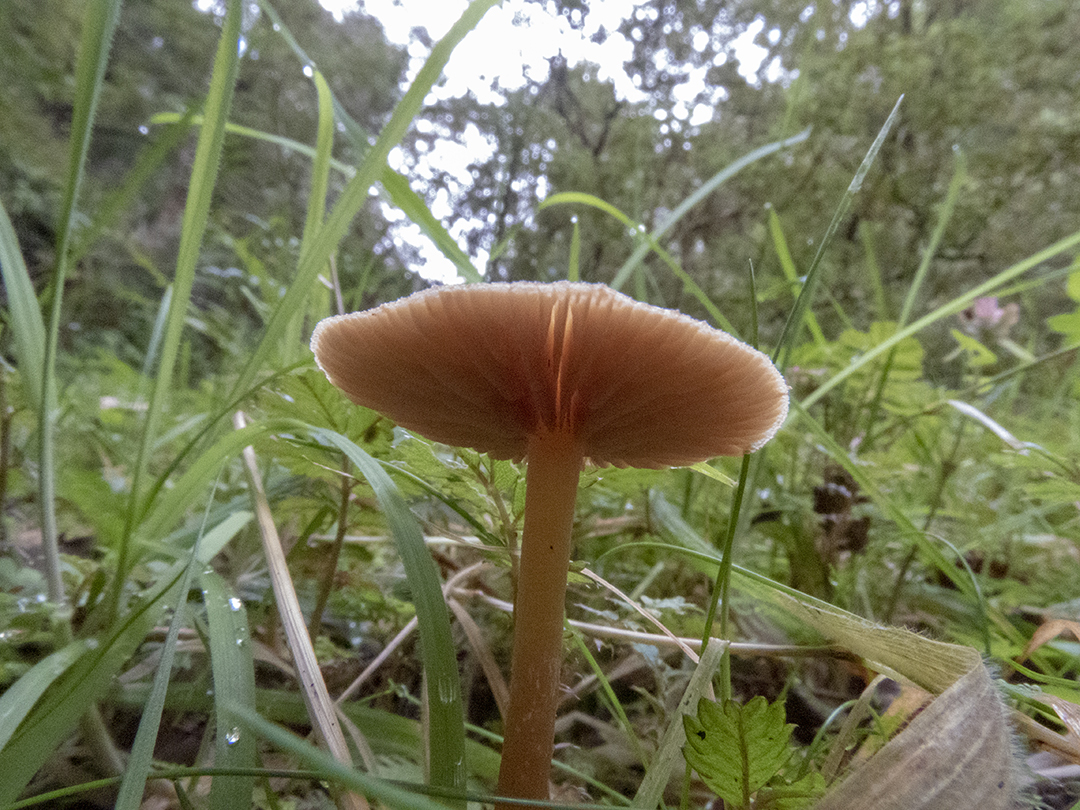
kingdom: Fungi
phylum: Basidiomycota
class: Agaricomycetes
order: Agaricales
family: Tubariaceae
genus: Tubaria
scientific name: Tubaria furfuracea
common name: Scurfy twiglet
